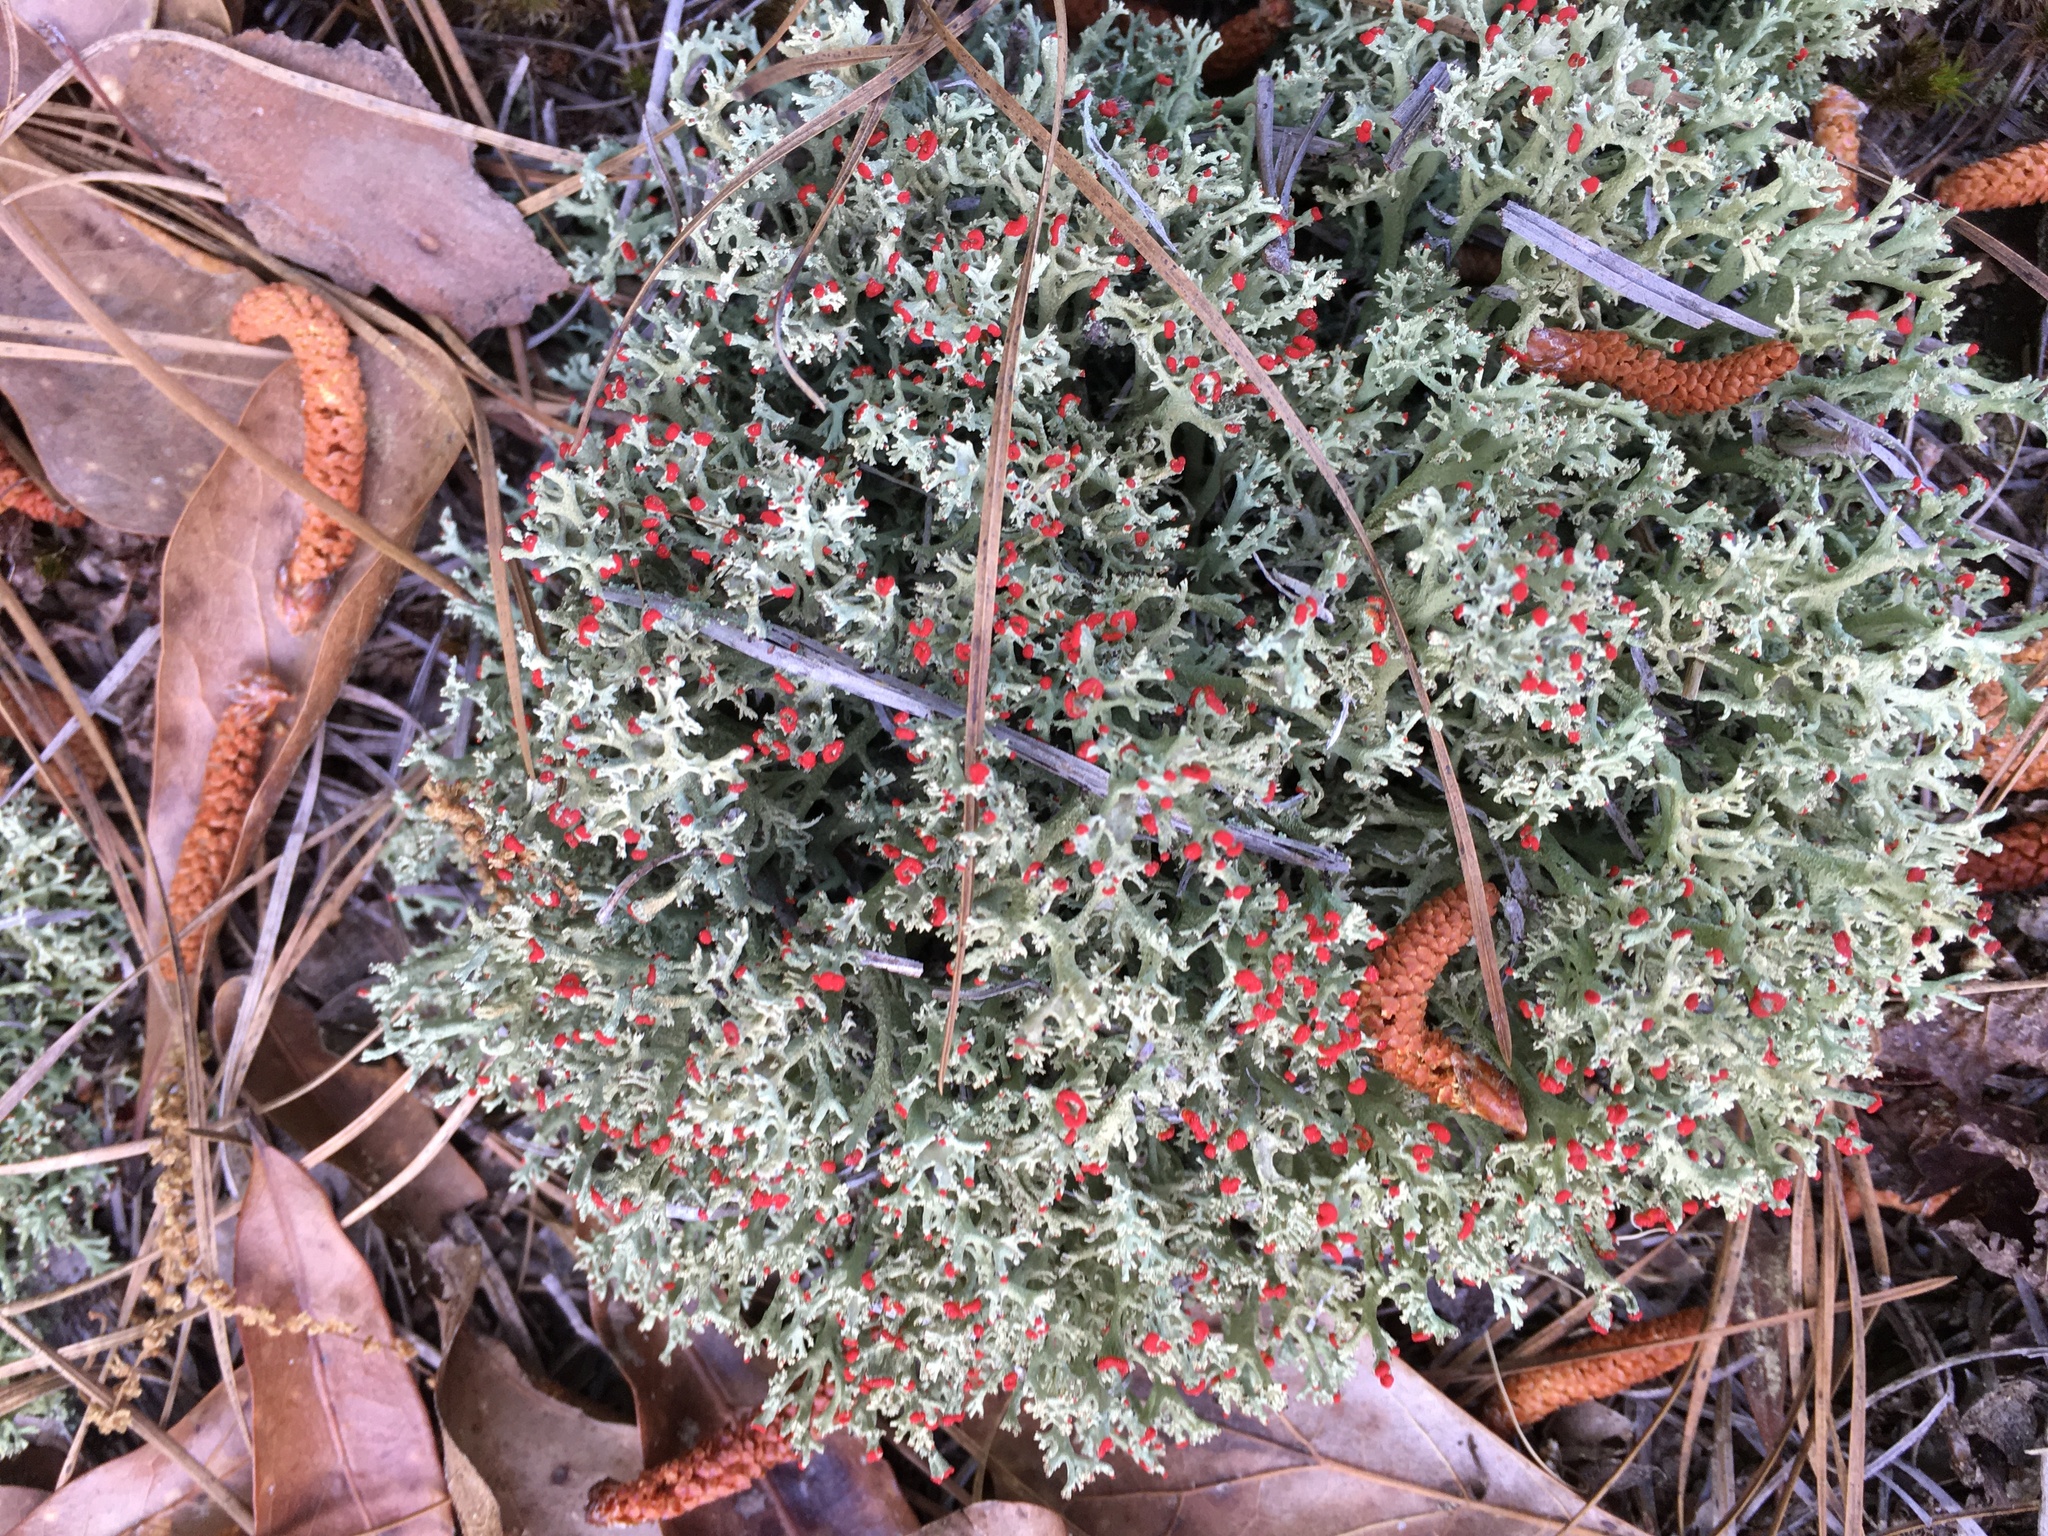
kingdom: Fungi
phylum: Ascomycota
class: Lecanoromycetes
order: Lecanorales
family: Cladoniaceae
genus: Cladonia
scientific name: Cladonia cristatella
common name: British soldier lichen
